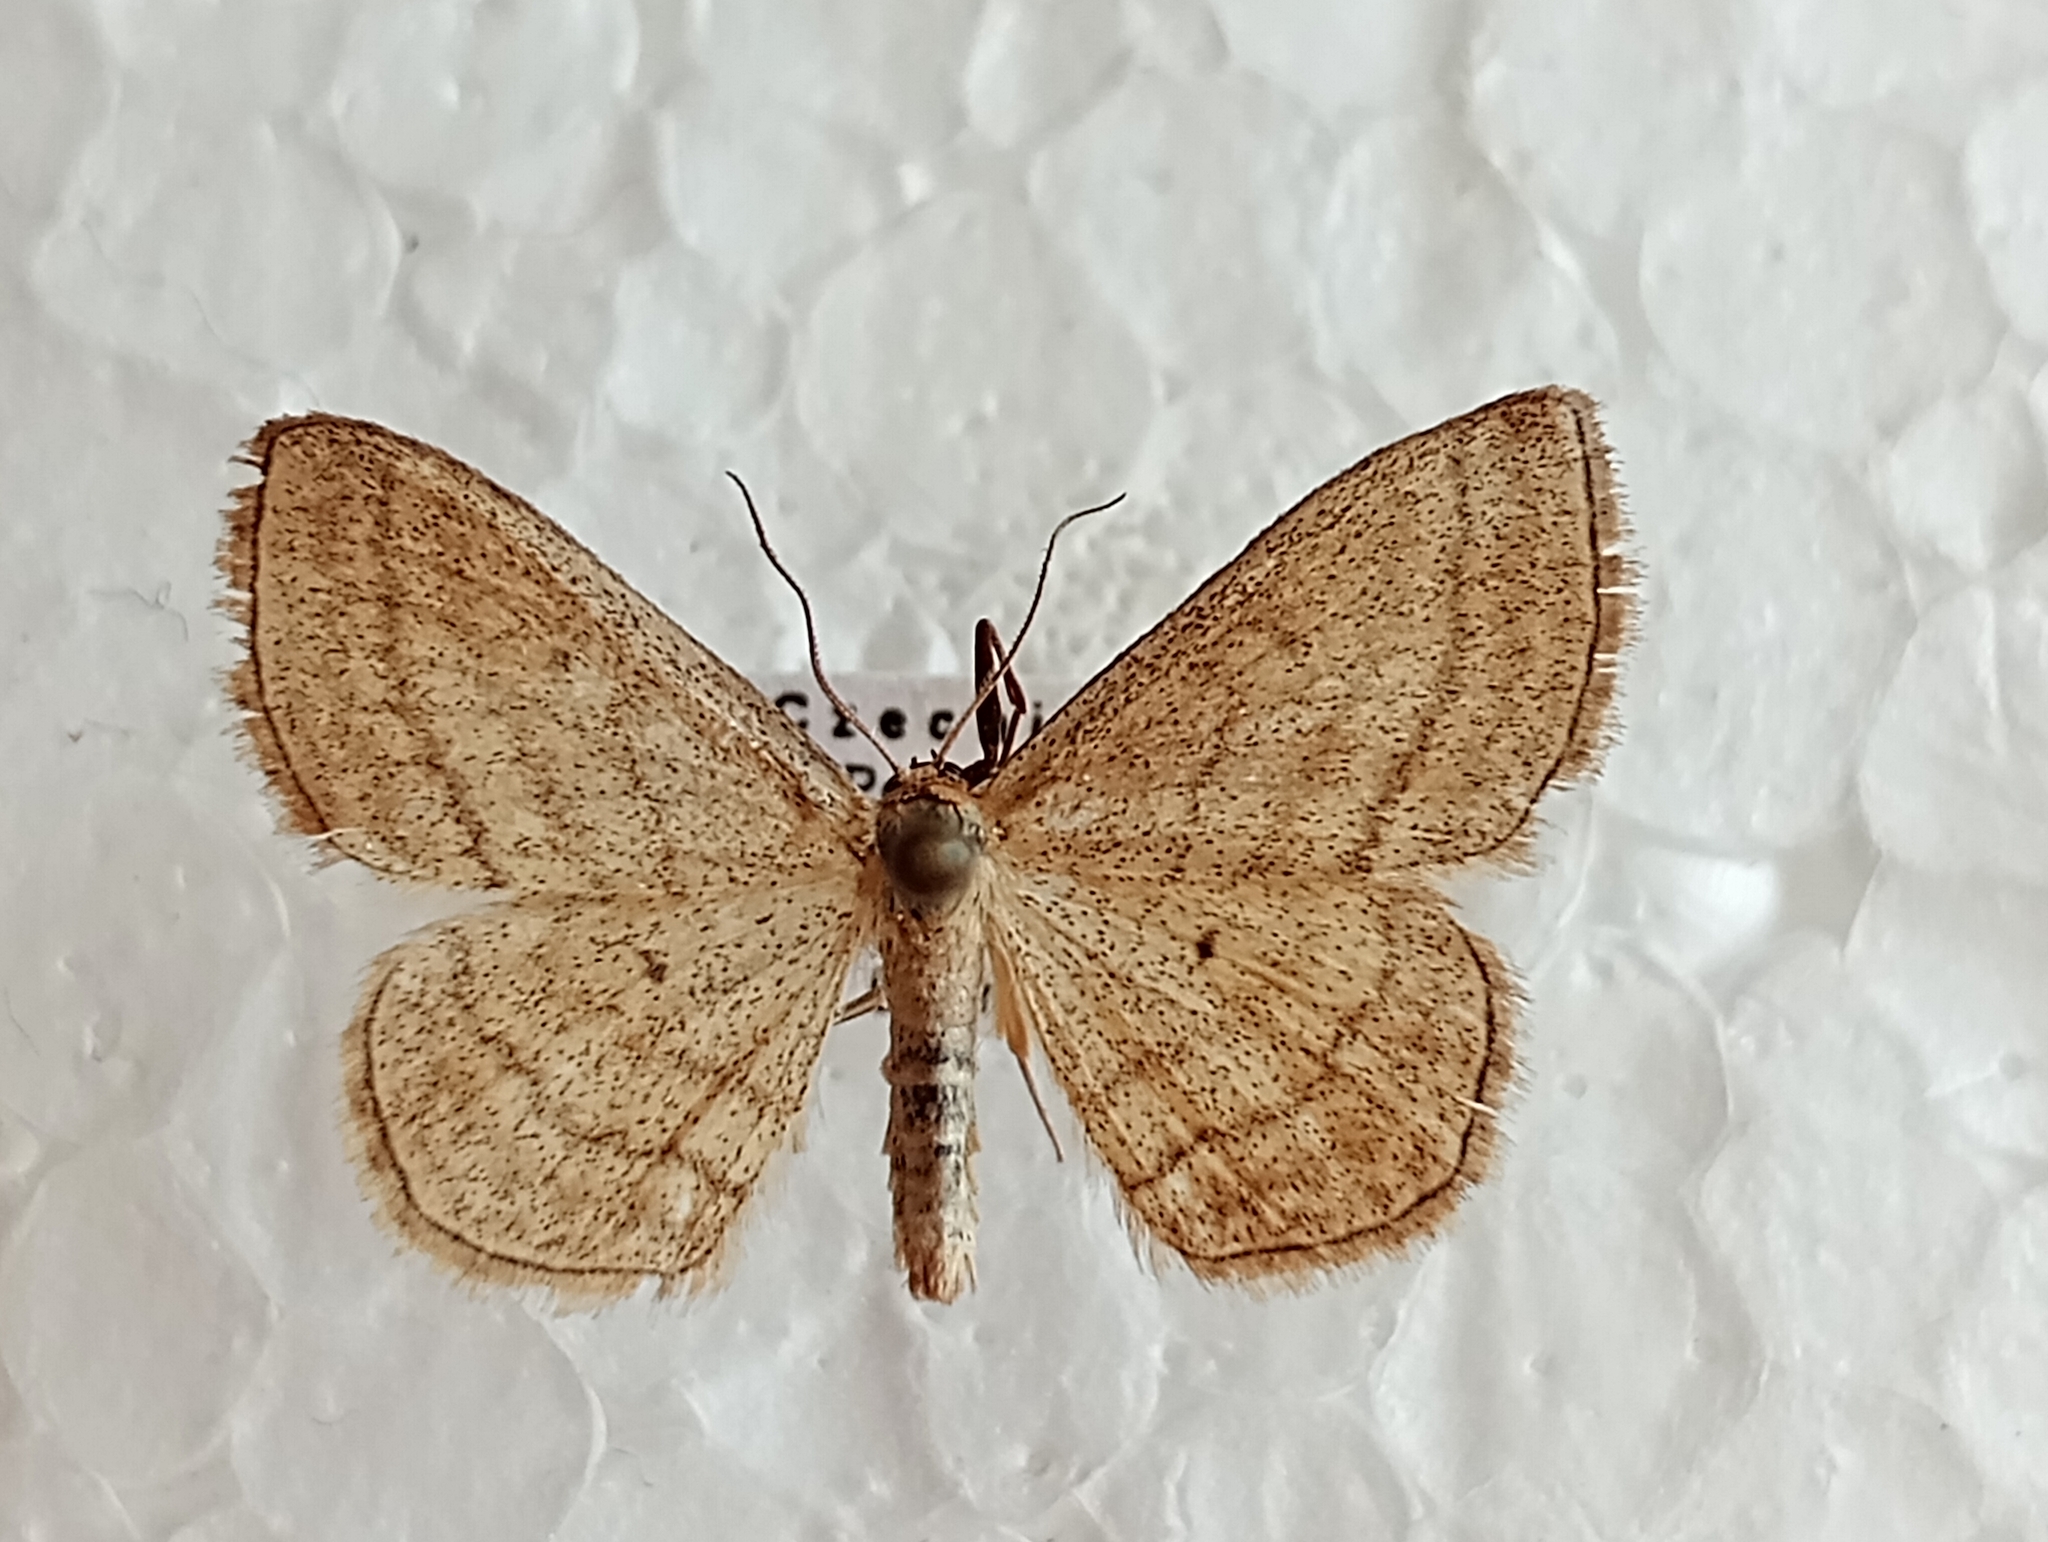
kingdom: Animalia
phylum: Arthropoda
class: Insecta
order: Lepidoptera
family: Geometridae
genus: Scopula
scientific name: Scopula virgulata
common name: Streaked wave
